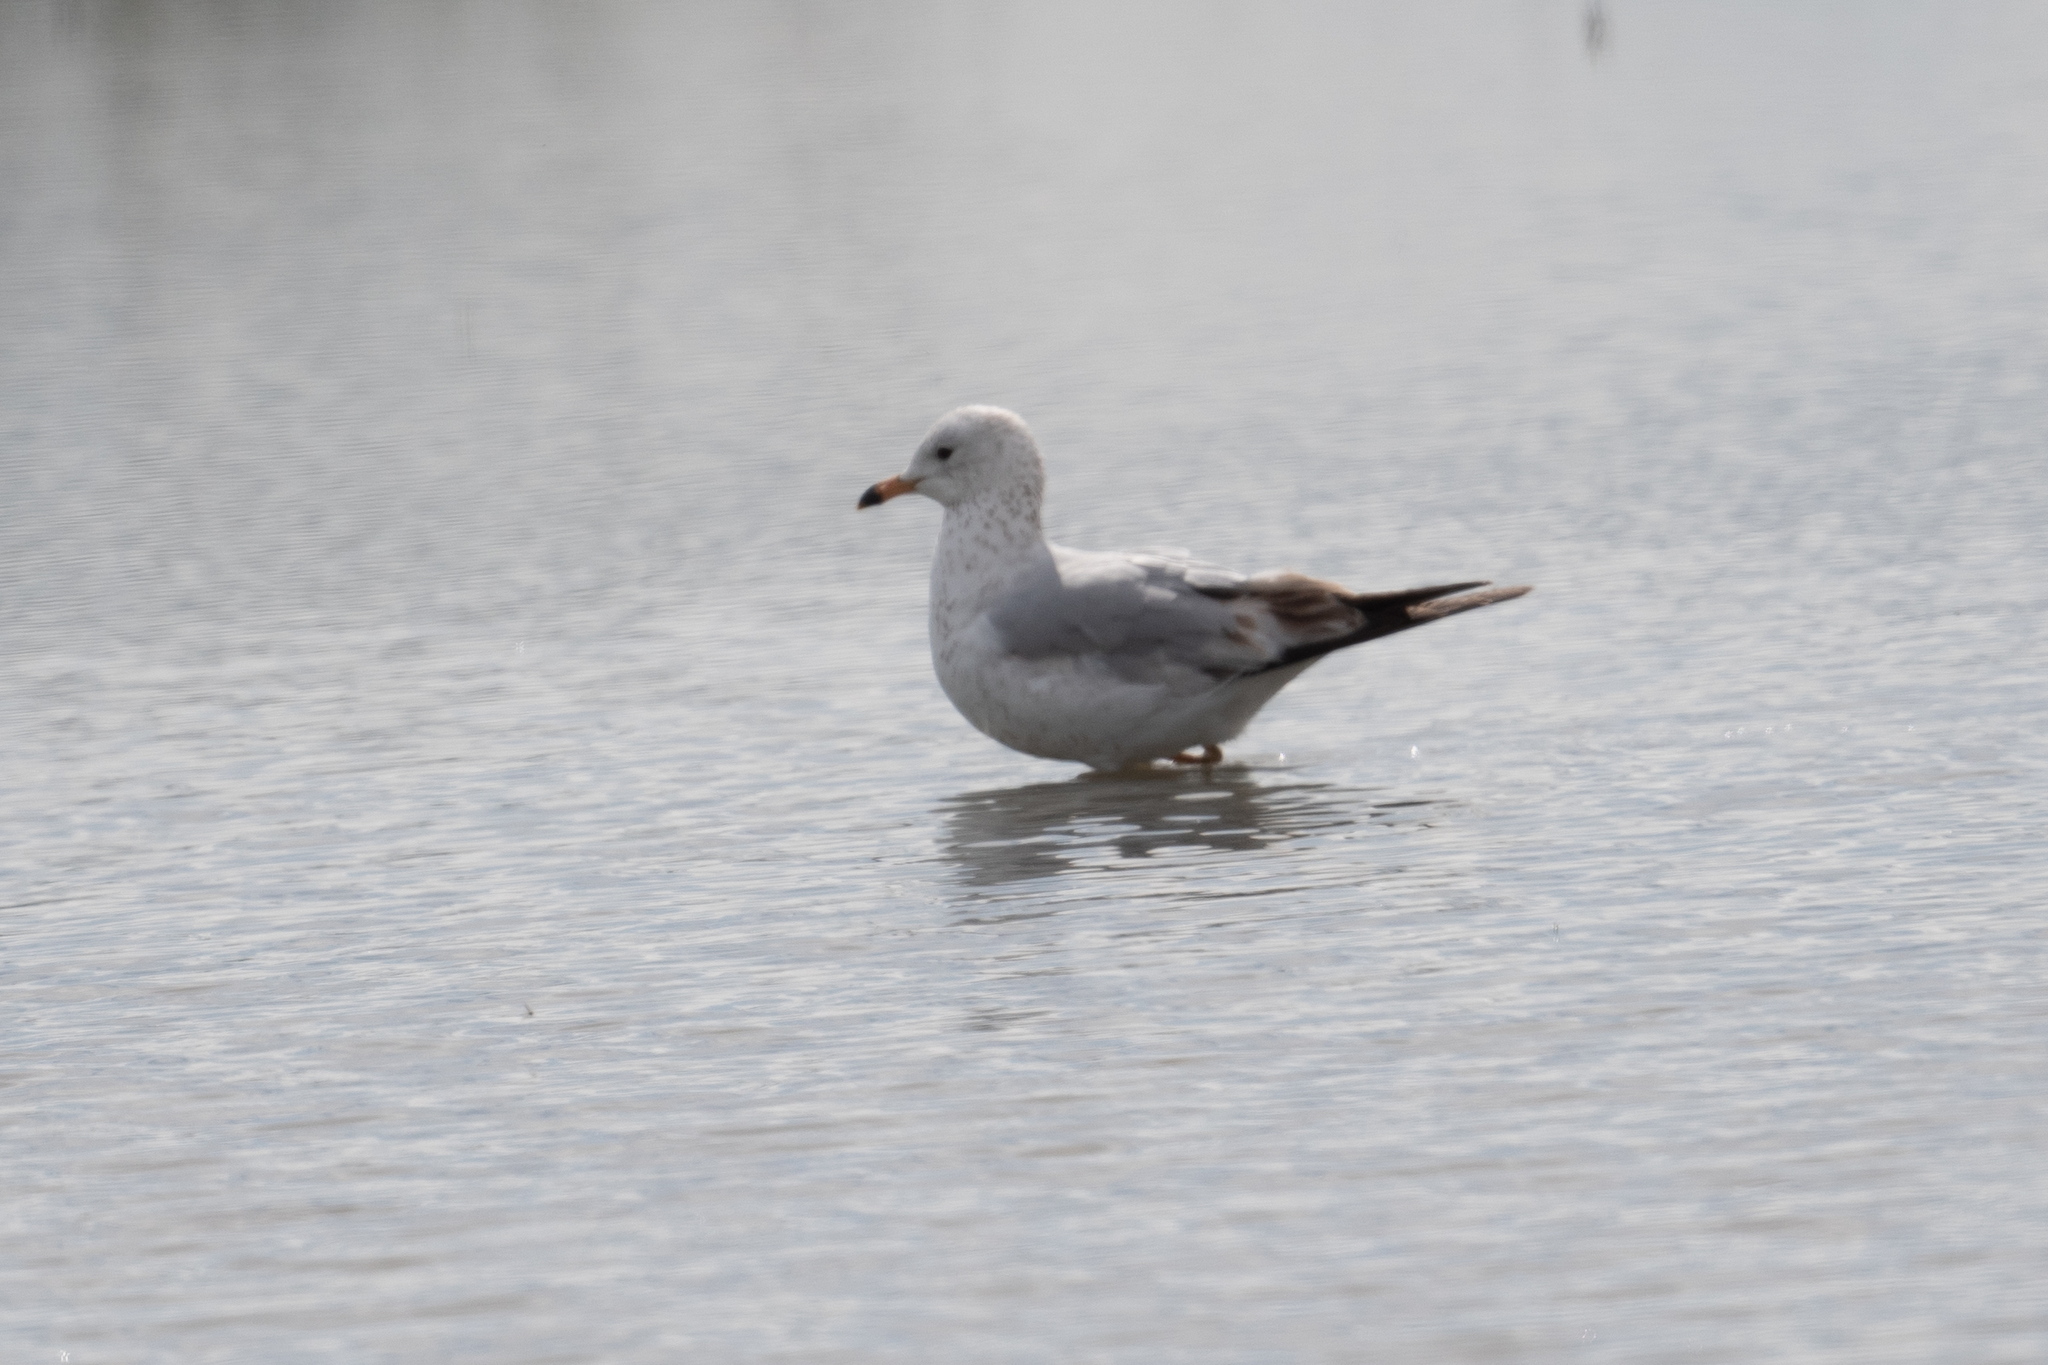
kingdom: Animalia
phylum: Chordata
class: Aves
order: Charadriiformes
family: Laridae
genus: Larus
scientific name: Larus delawarensis
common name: Ring-billed gull
